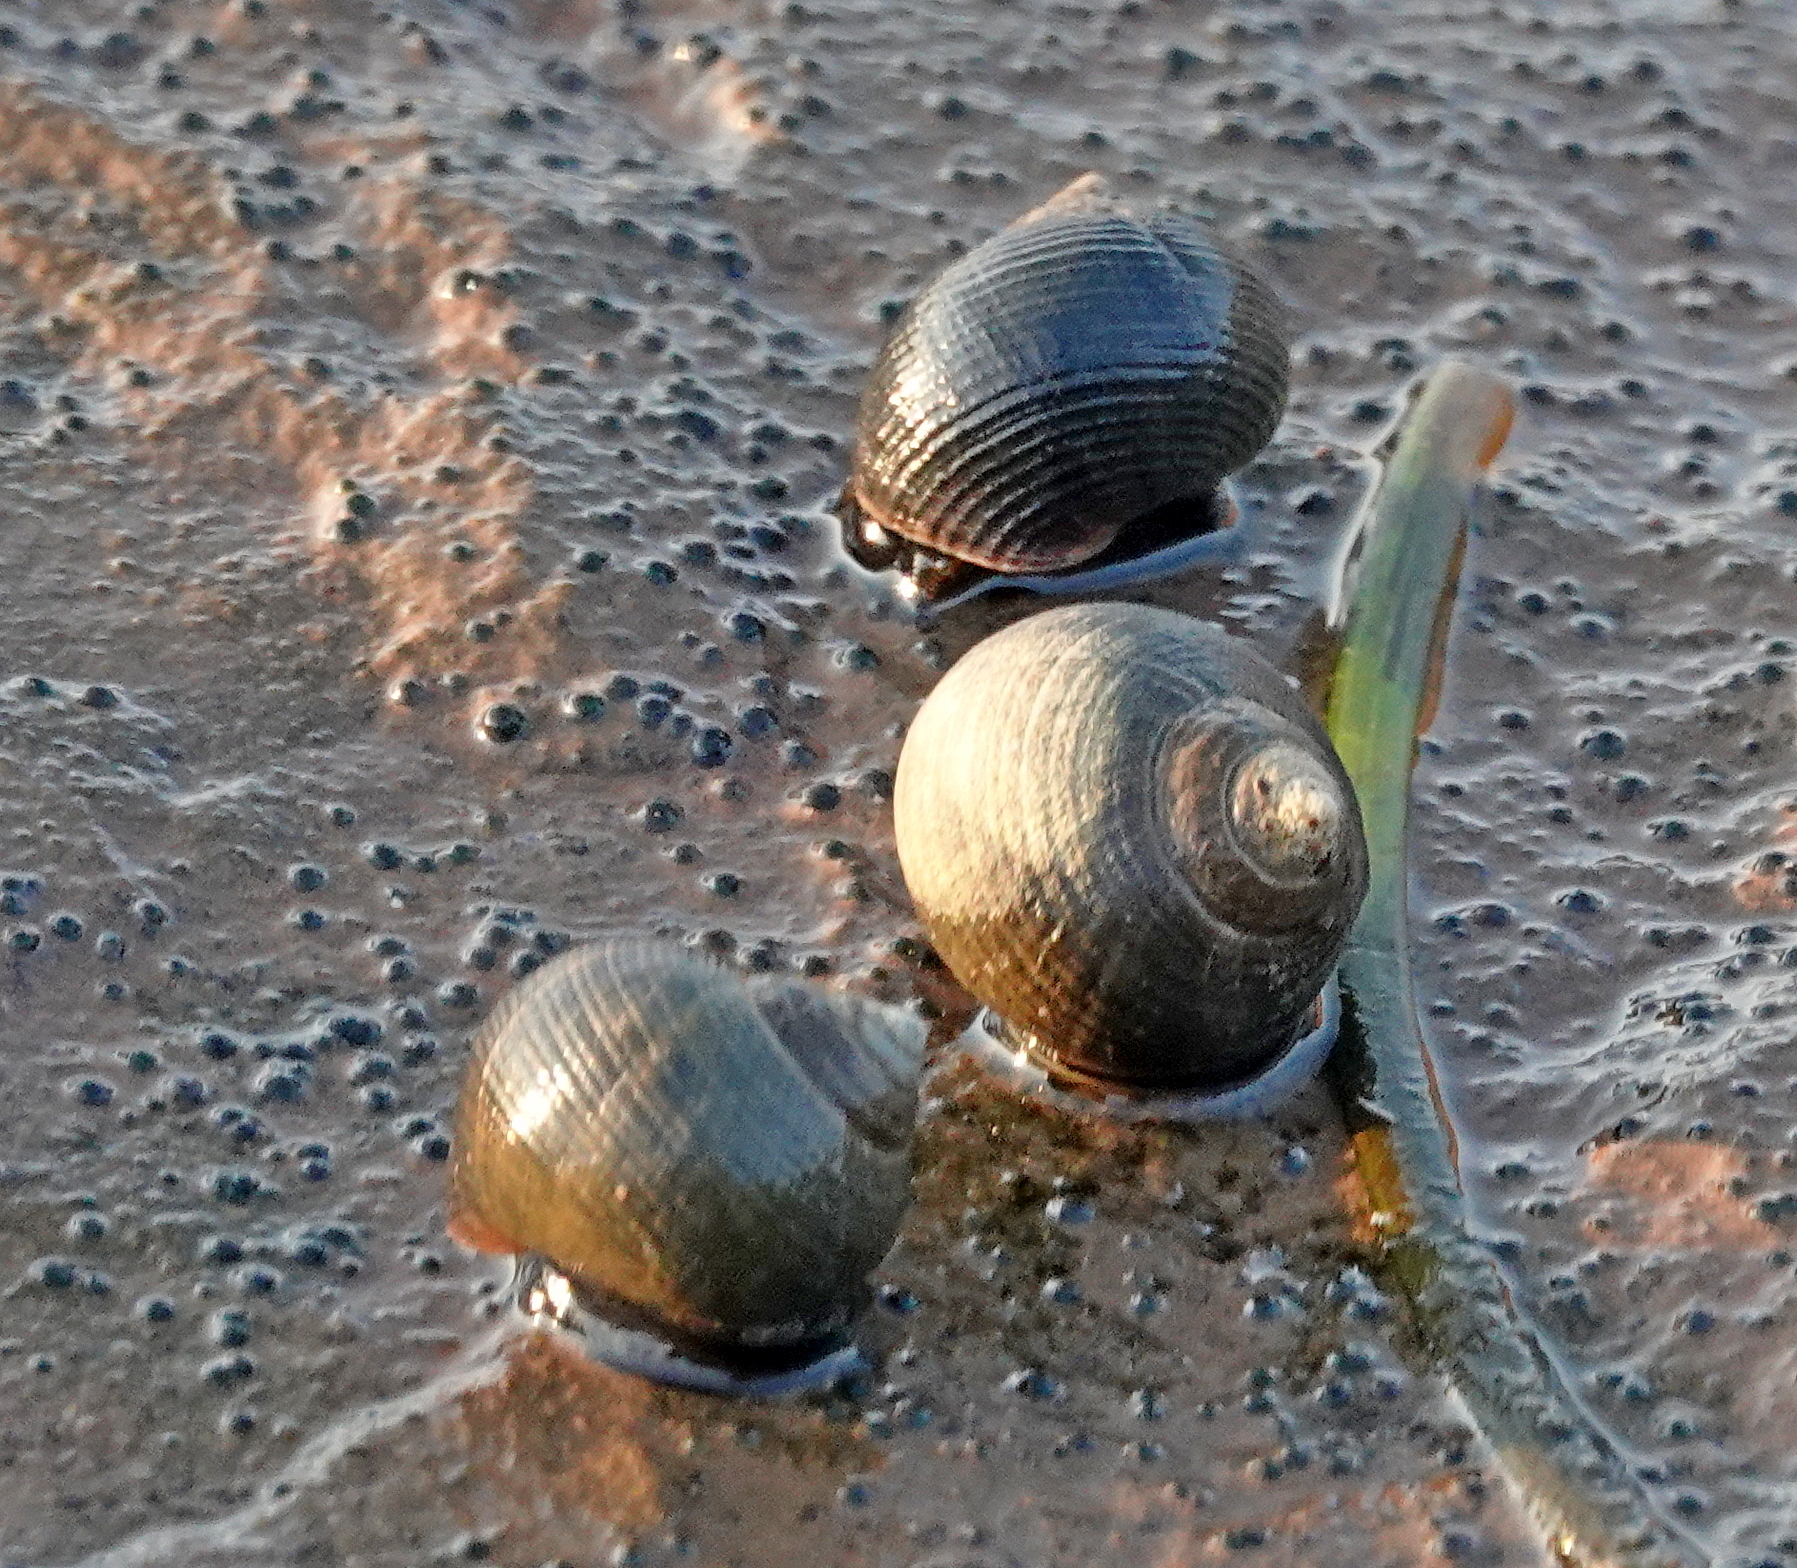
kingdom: Animalia
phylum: Mollusca
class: Gastropoda
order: Littorinimorpha
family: Littorinidae
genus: Littorina
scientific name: Littorina littorea
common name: Common periwinkle
